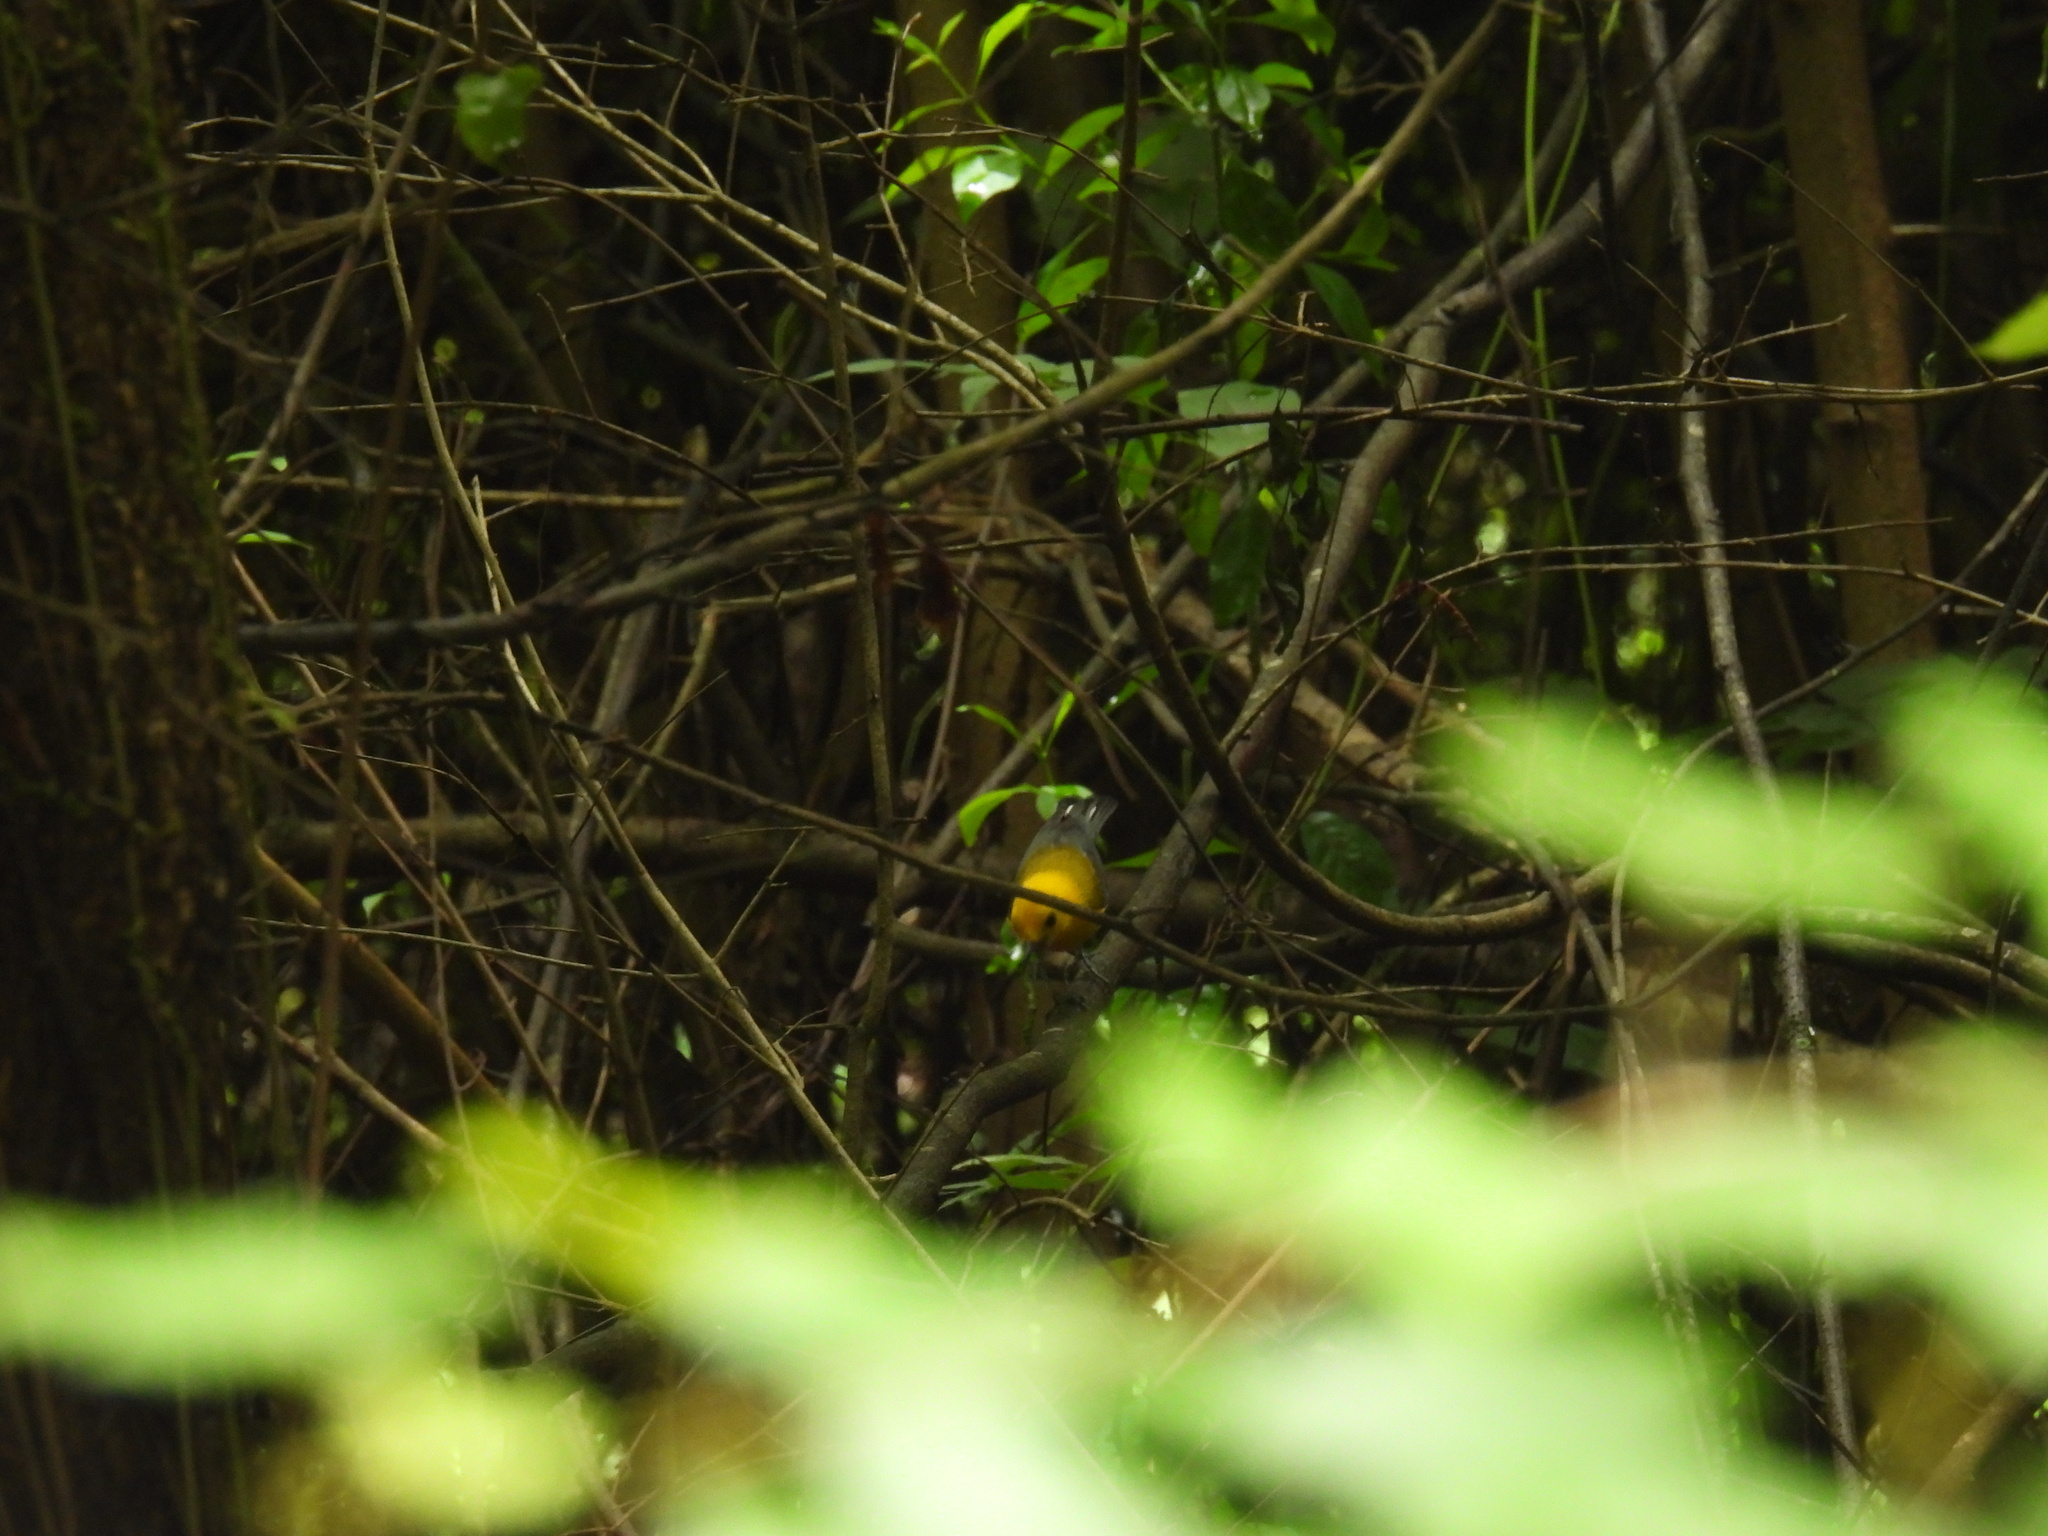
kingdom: Animalia
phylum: Chordata
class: Aves
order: Passeriformes
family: Parulidae
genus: Protonotaria
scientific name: Protonotaria citrea
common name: Prothonotary warbler
